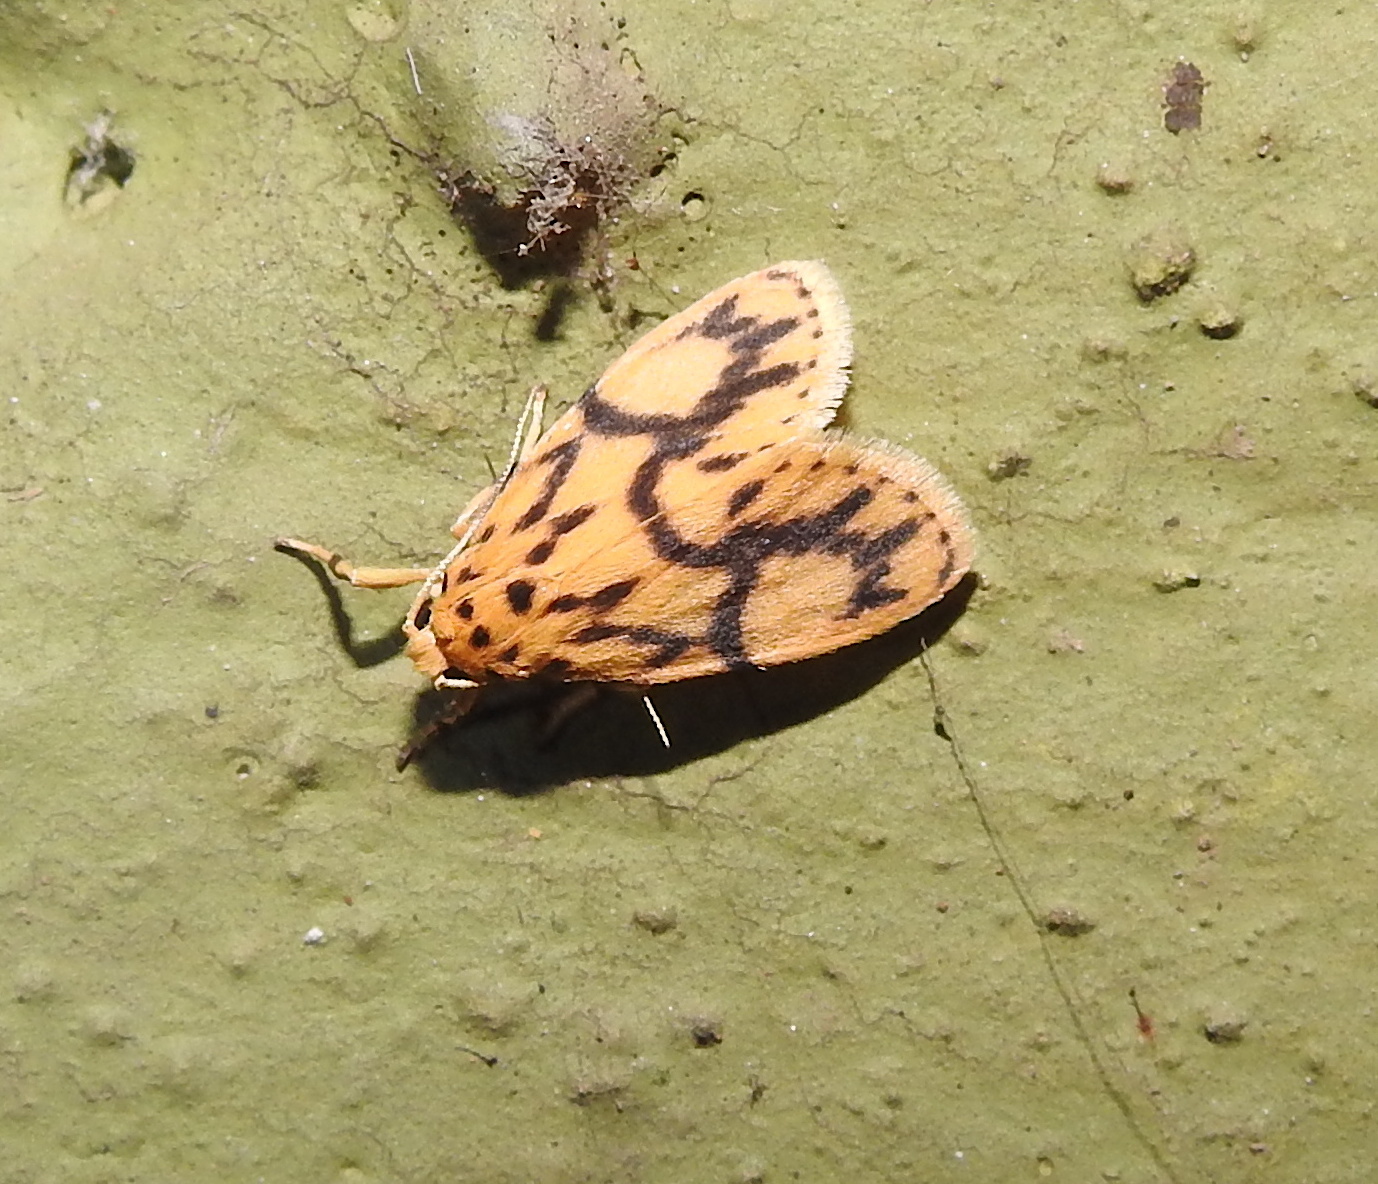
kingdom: Animalia
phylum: Arthropoda
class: Insecta
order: Lepidoptera
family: Erebidae
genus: Miltochrista
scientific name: Miltochrista terminospota
